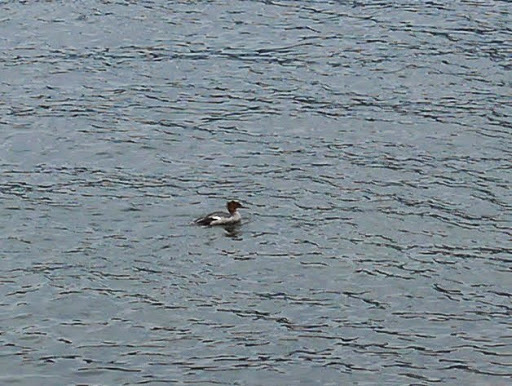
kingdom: Animalia
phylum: Chordata
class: Aves
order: Anseriformes
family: Anatidae
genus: Mergus
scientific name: Mergus merganser
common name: Common merganser
